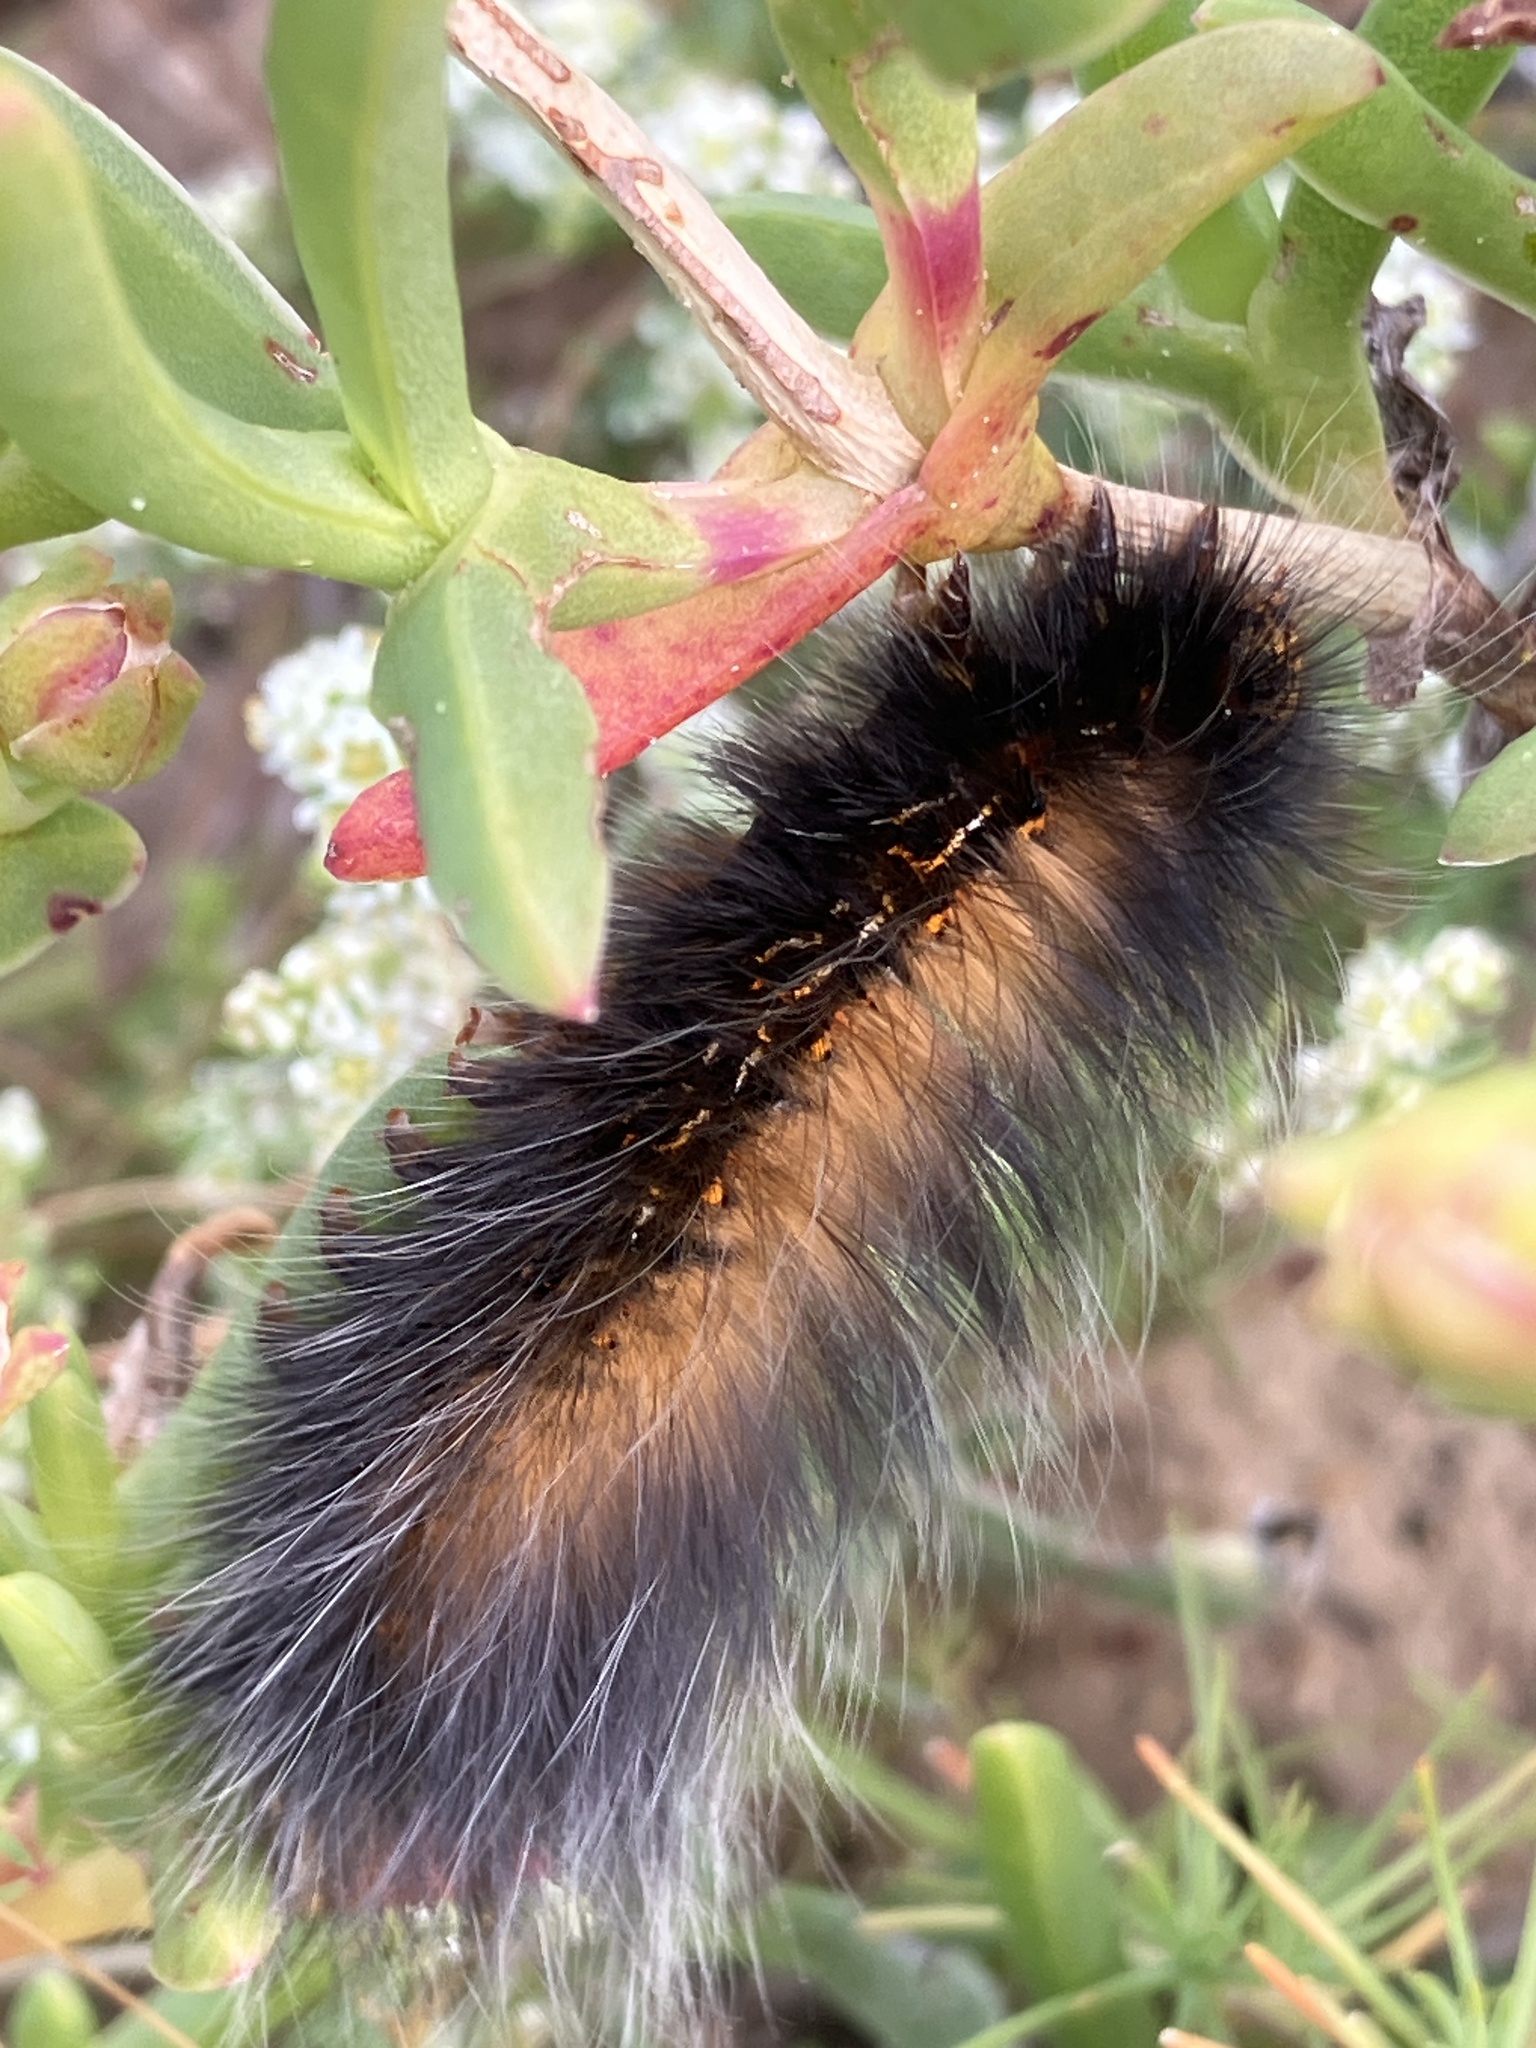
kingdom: Animalia
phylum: Arthropoda
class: Insecta
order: Lepidoptera
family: Lasiocampidae
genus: Mesocelis
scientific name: Mesocelis monticola
